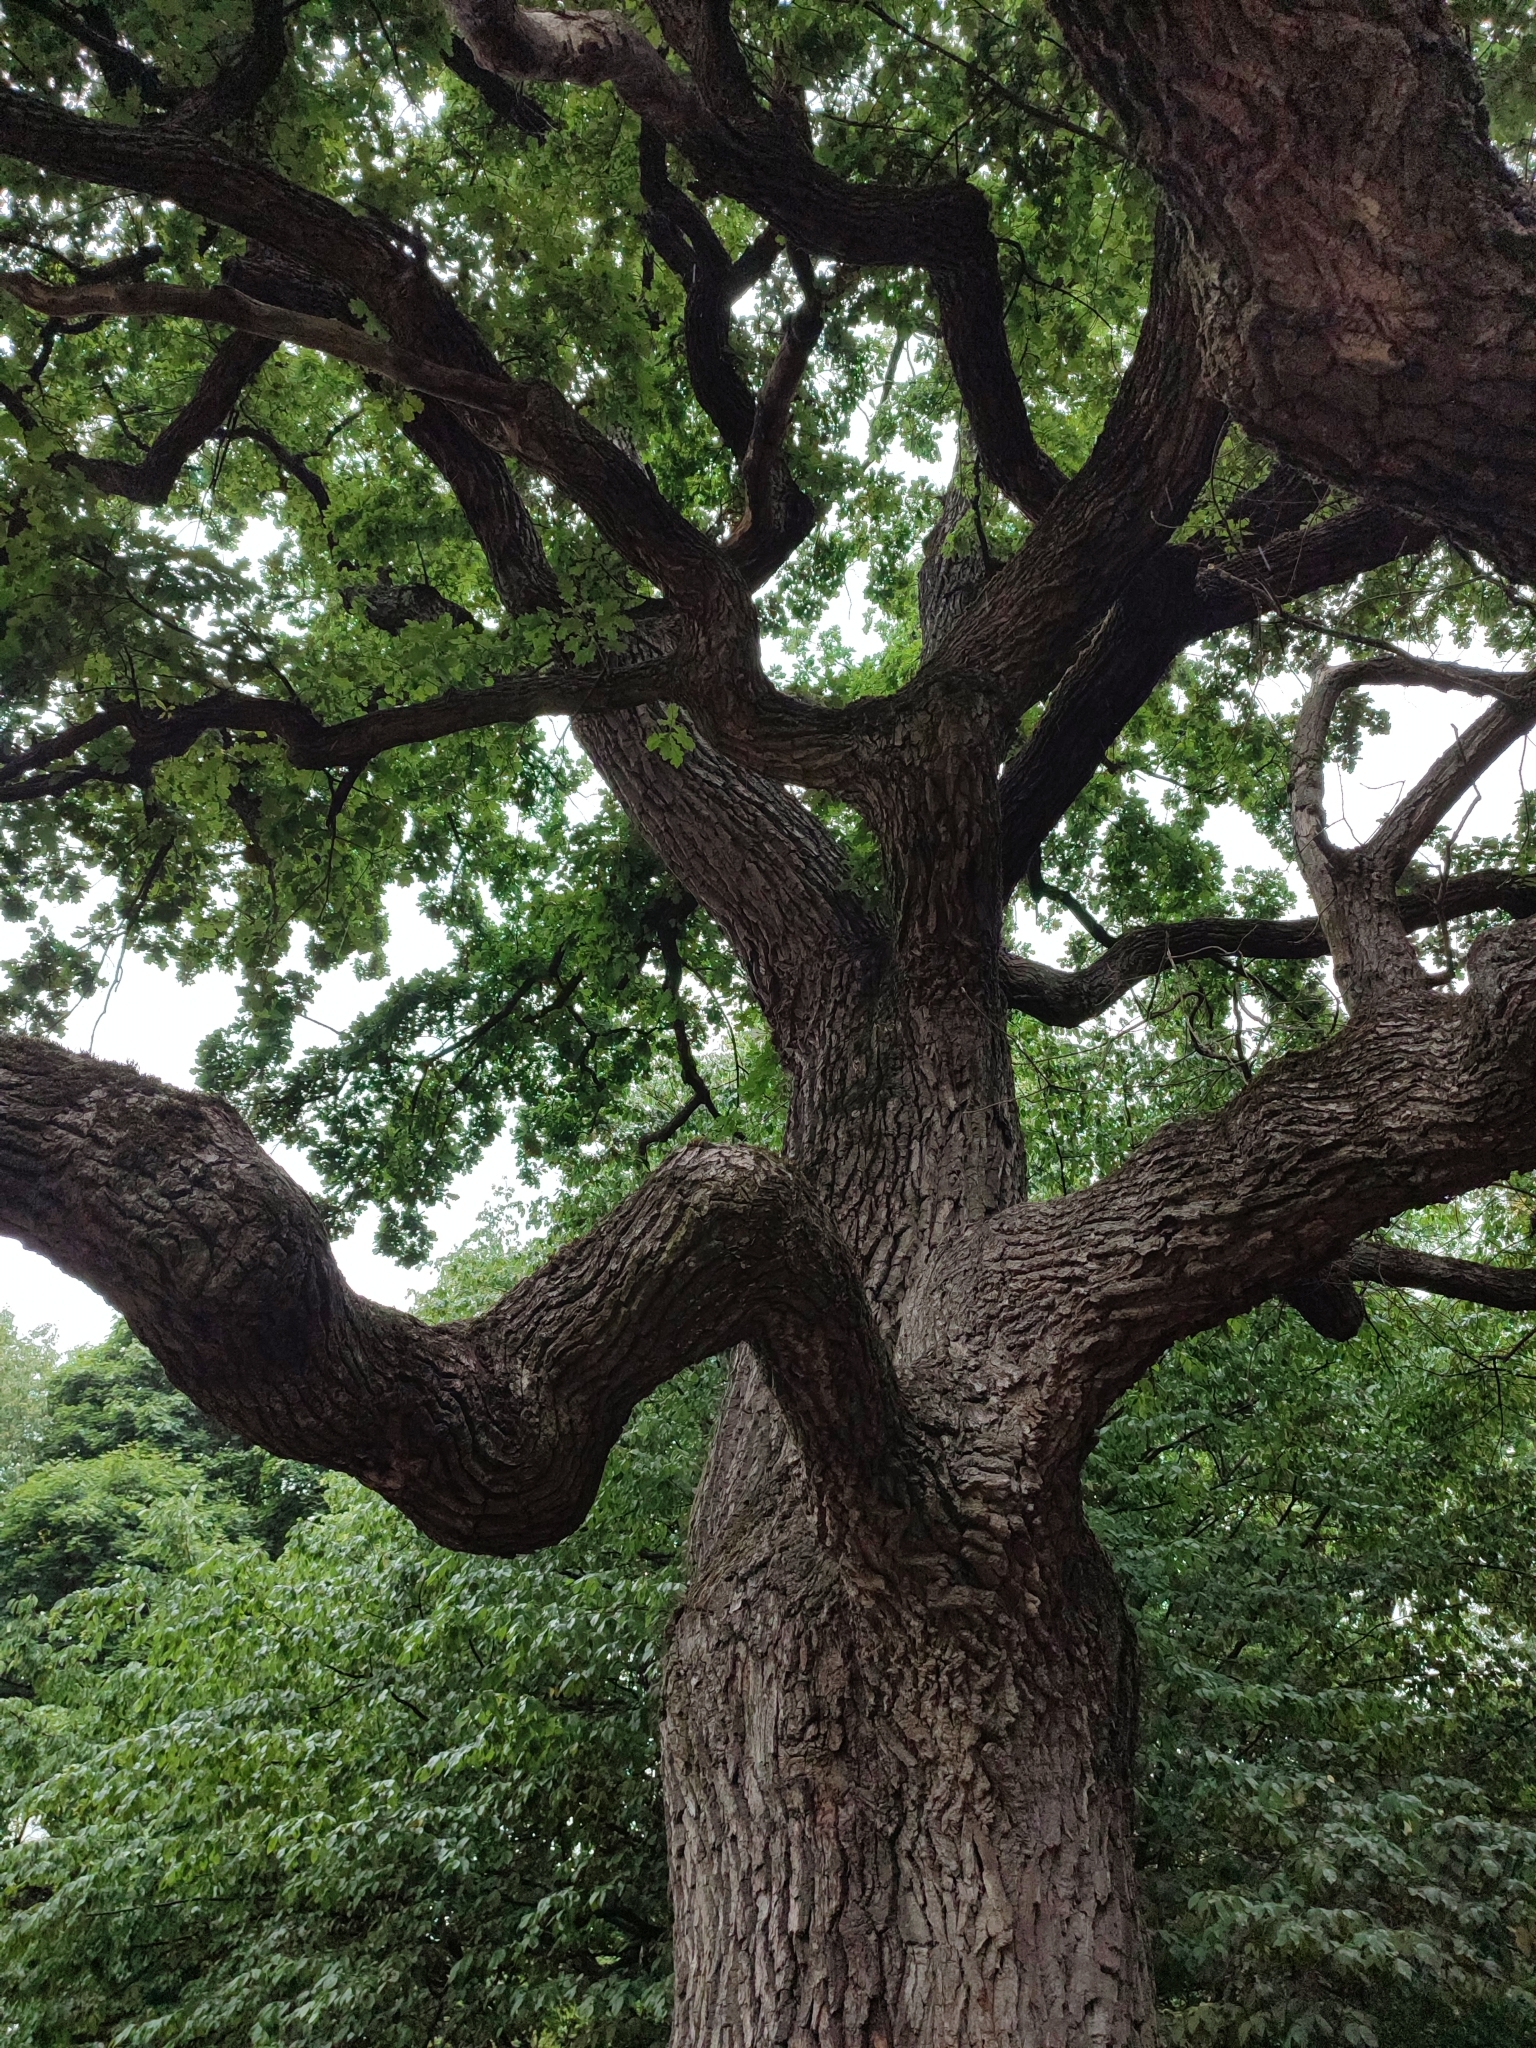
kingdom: Plantae
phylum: Tracheophyta
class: Magnoliopsida
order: Fagales
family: Fagaceae
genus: Quercus
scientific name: Quercus robur
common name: Pedunculate oak
